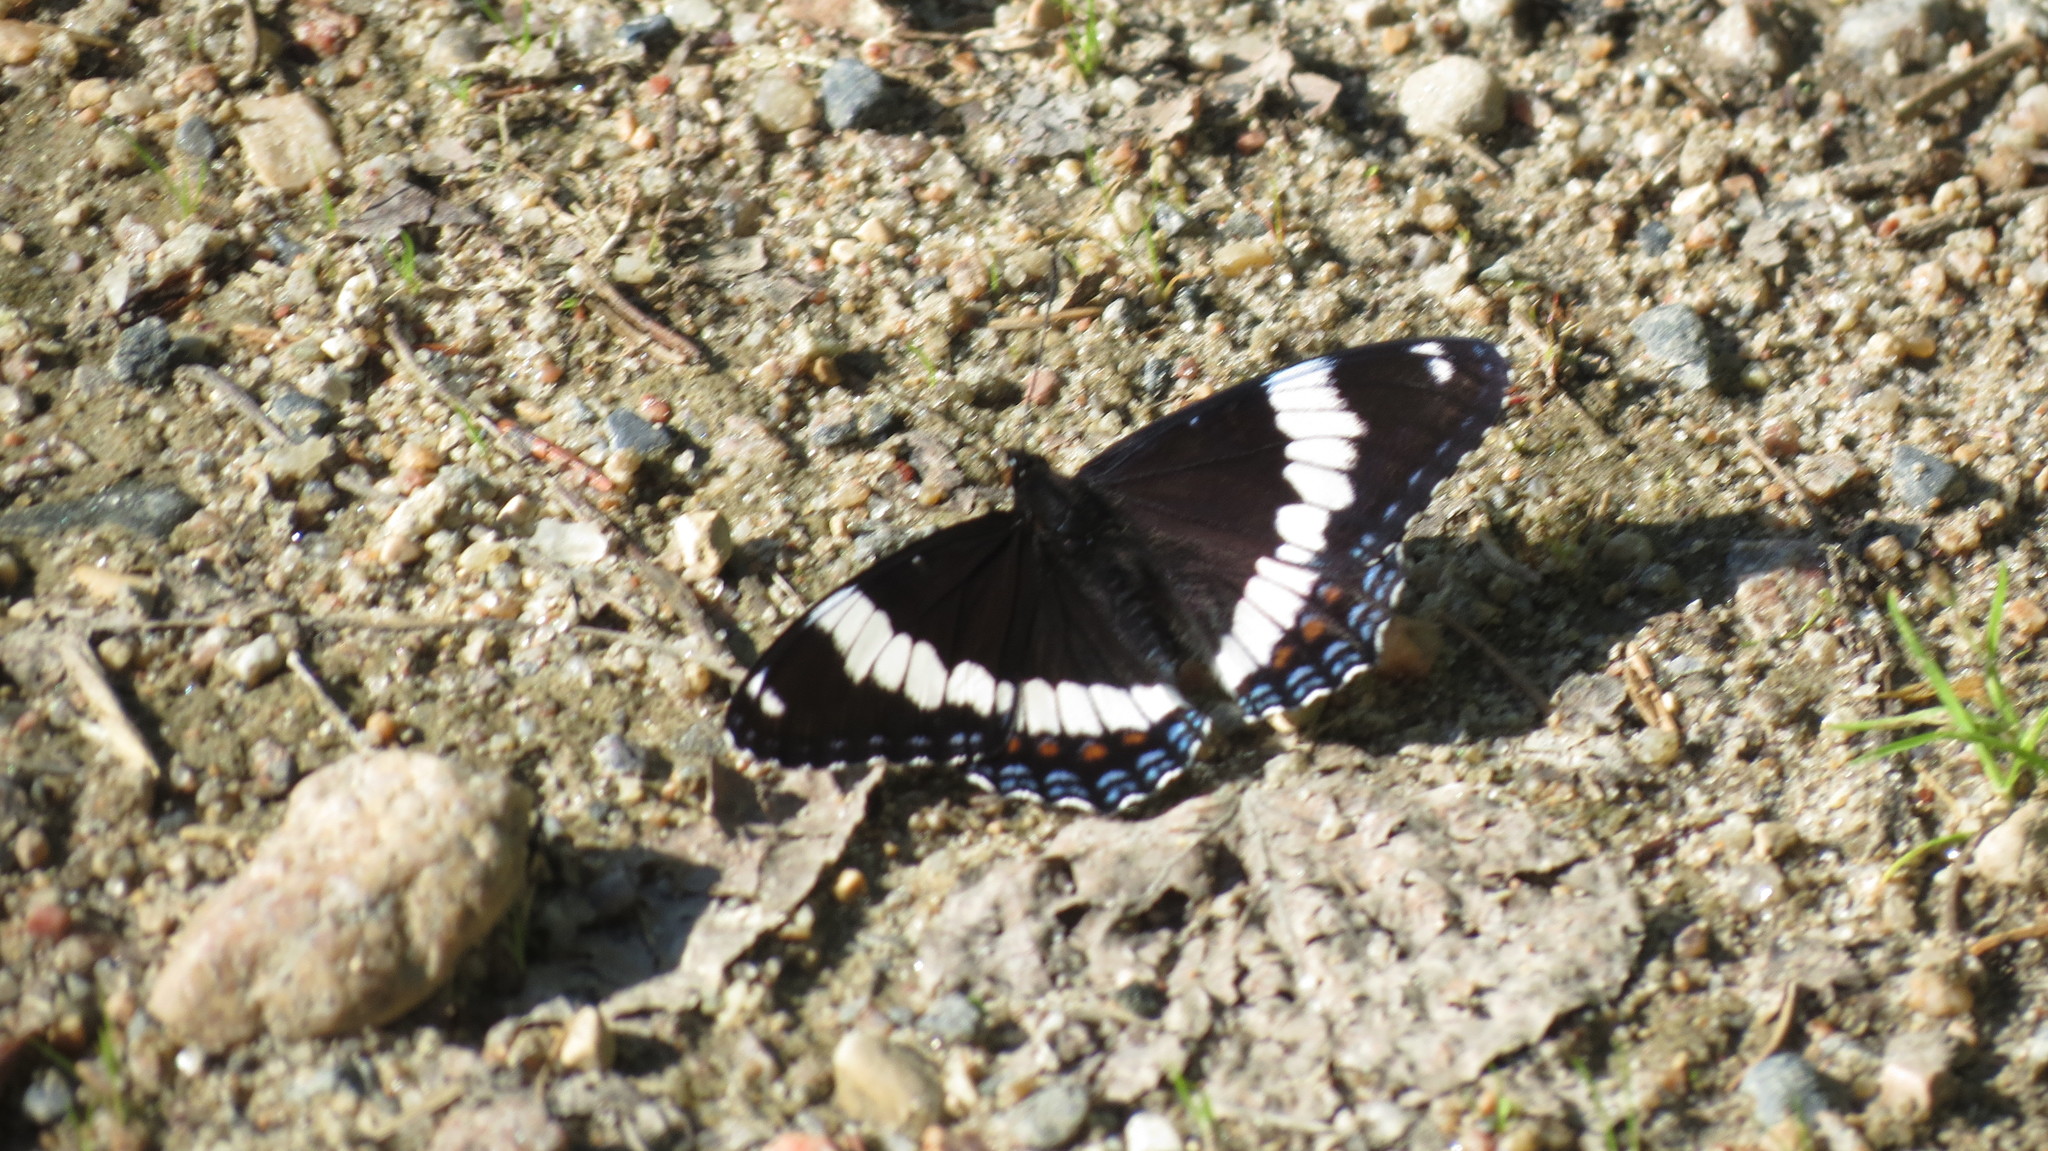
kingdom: Animalia
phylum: Arthropoda
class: Insecta
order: Lepidoptera
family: Nymphalidae
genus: Limenitis
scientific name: Limenitis arthemis
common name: Red-spotted admiral
